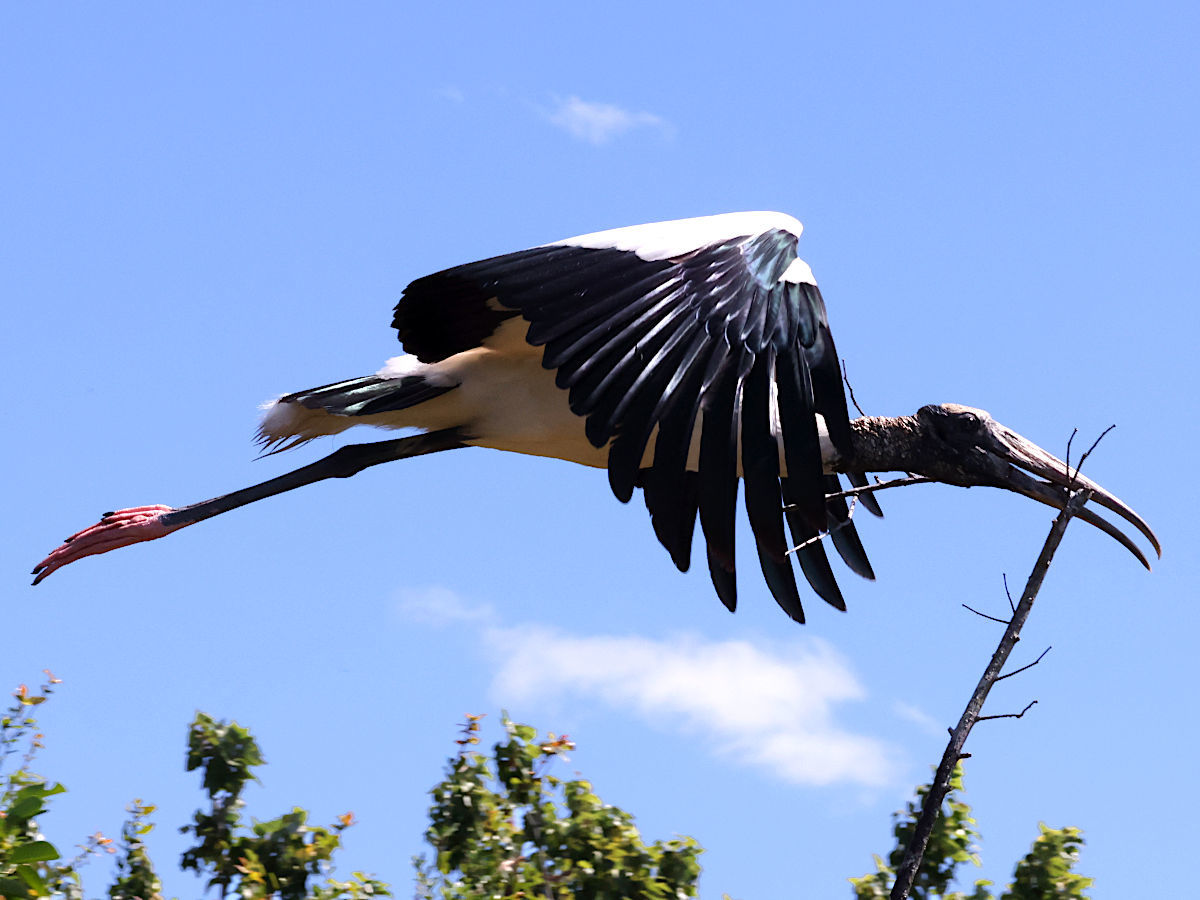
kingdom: Animalia
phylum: Chordata
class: Aves
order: Ciconiiformes
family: Ciconiidae
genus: Mycteria
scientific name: Mycteria americana
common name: Wood stork
